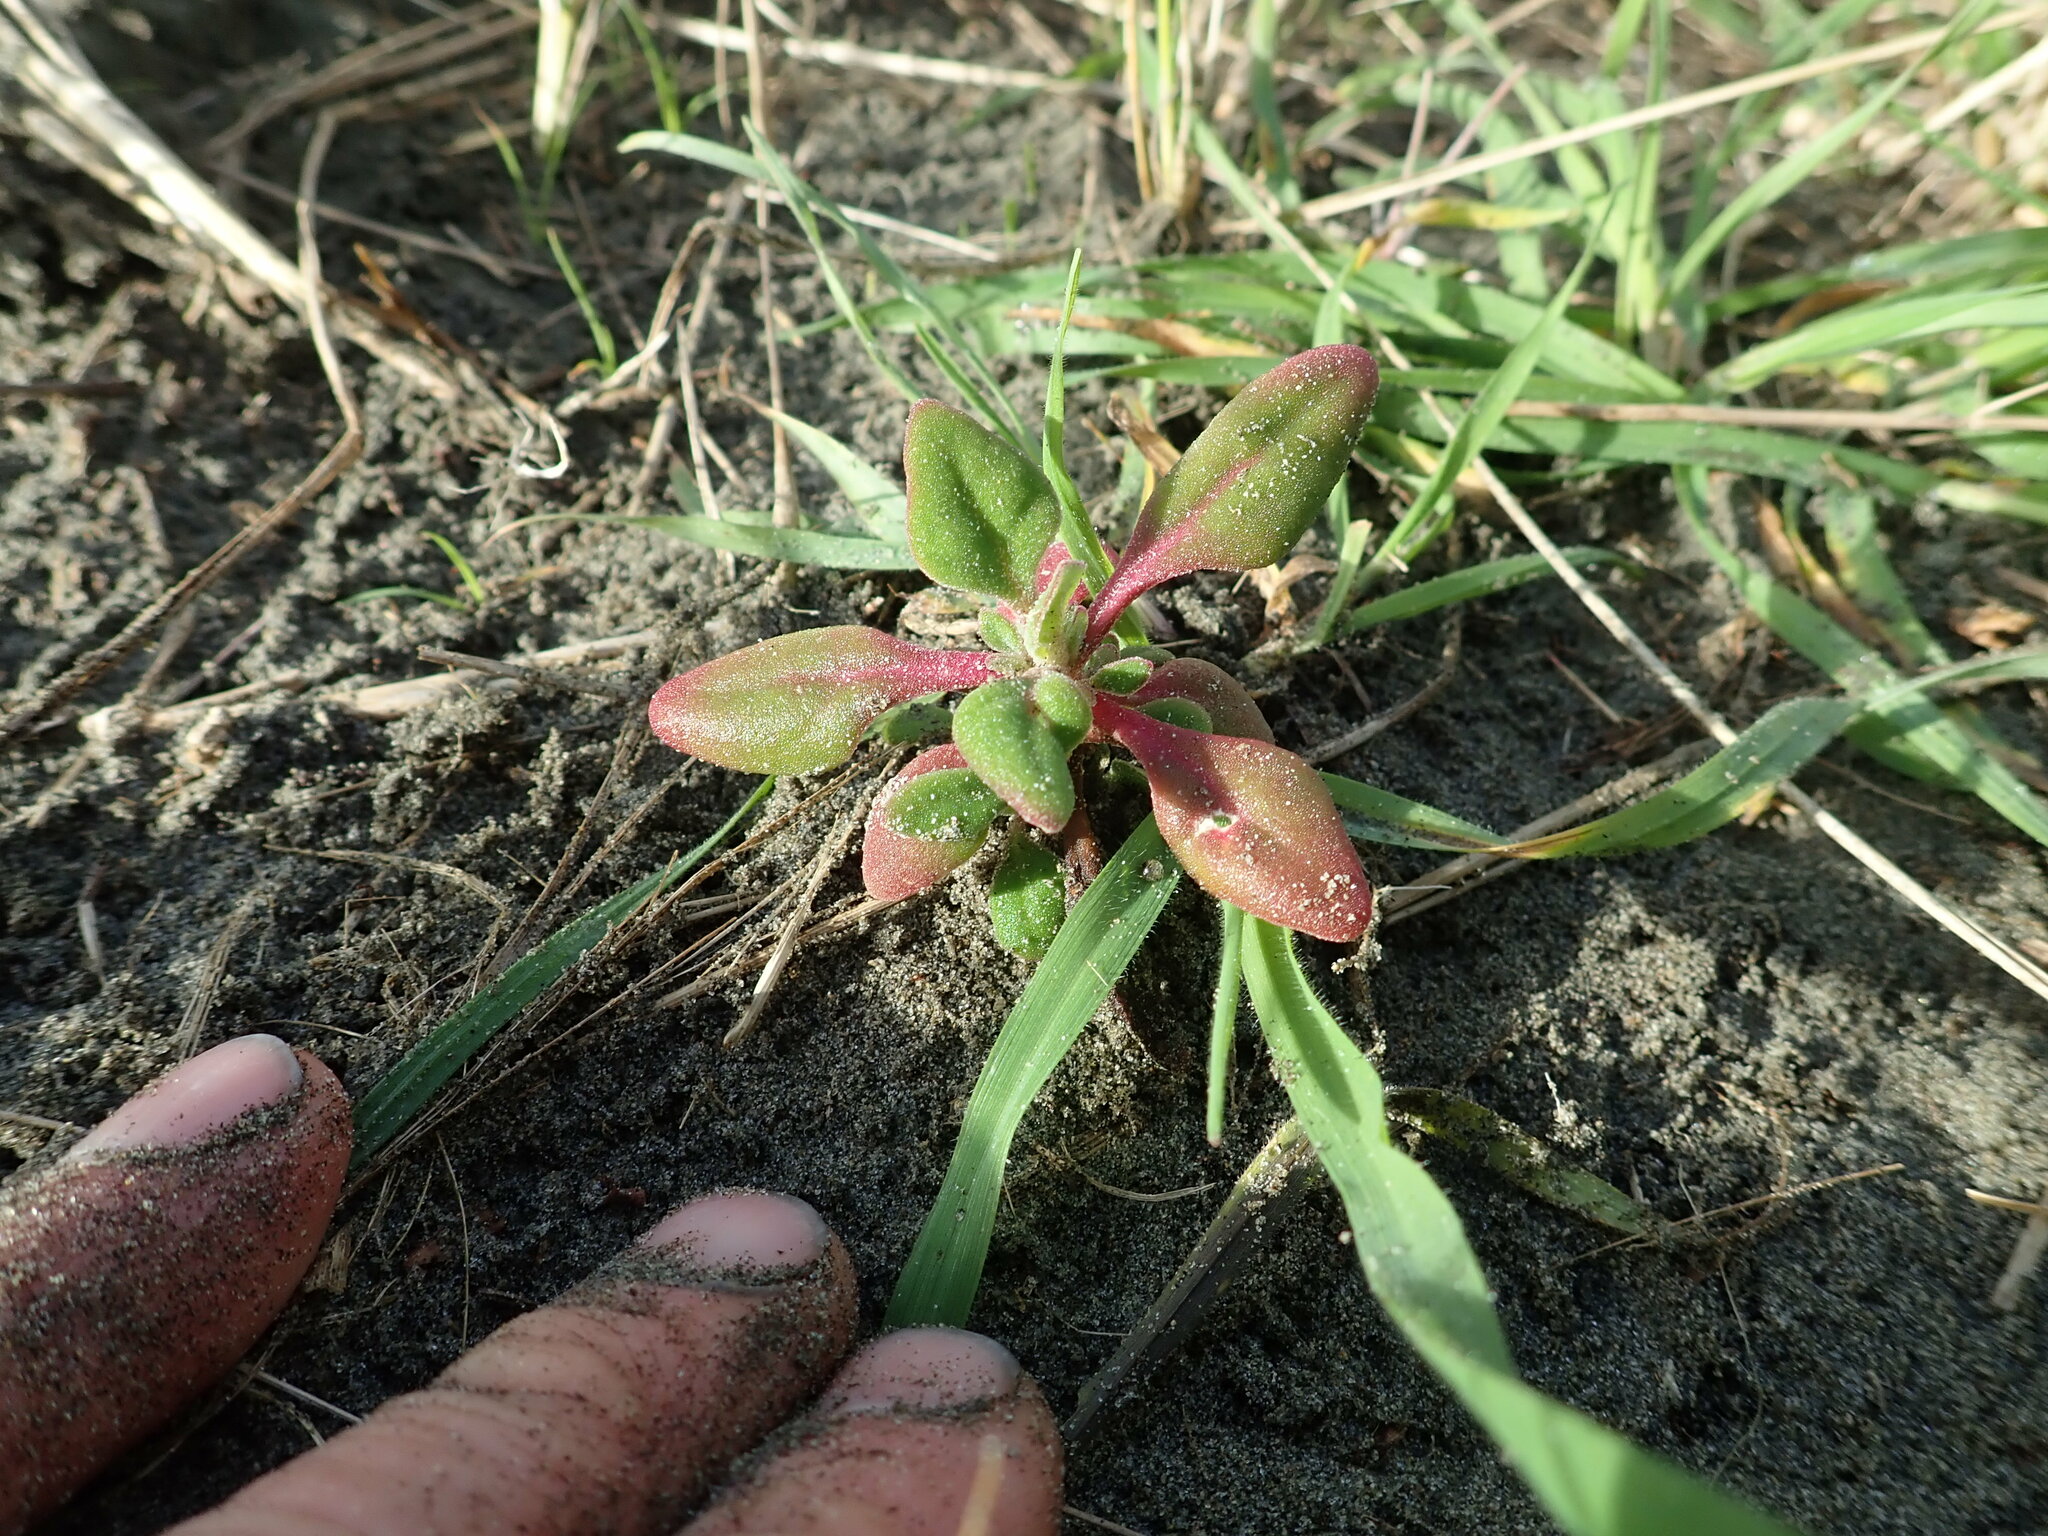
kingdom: Plantae
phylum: Tracheophyta
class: Magnoliopsida
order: Caryophyllales
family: Aizoaceae
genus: Tetragonia
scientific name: Tetragonia implexicoma
